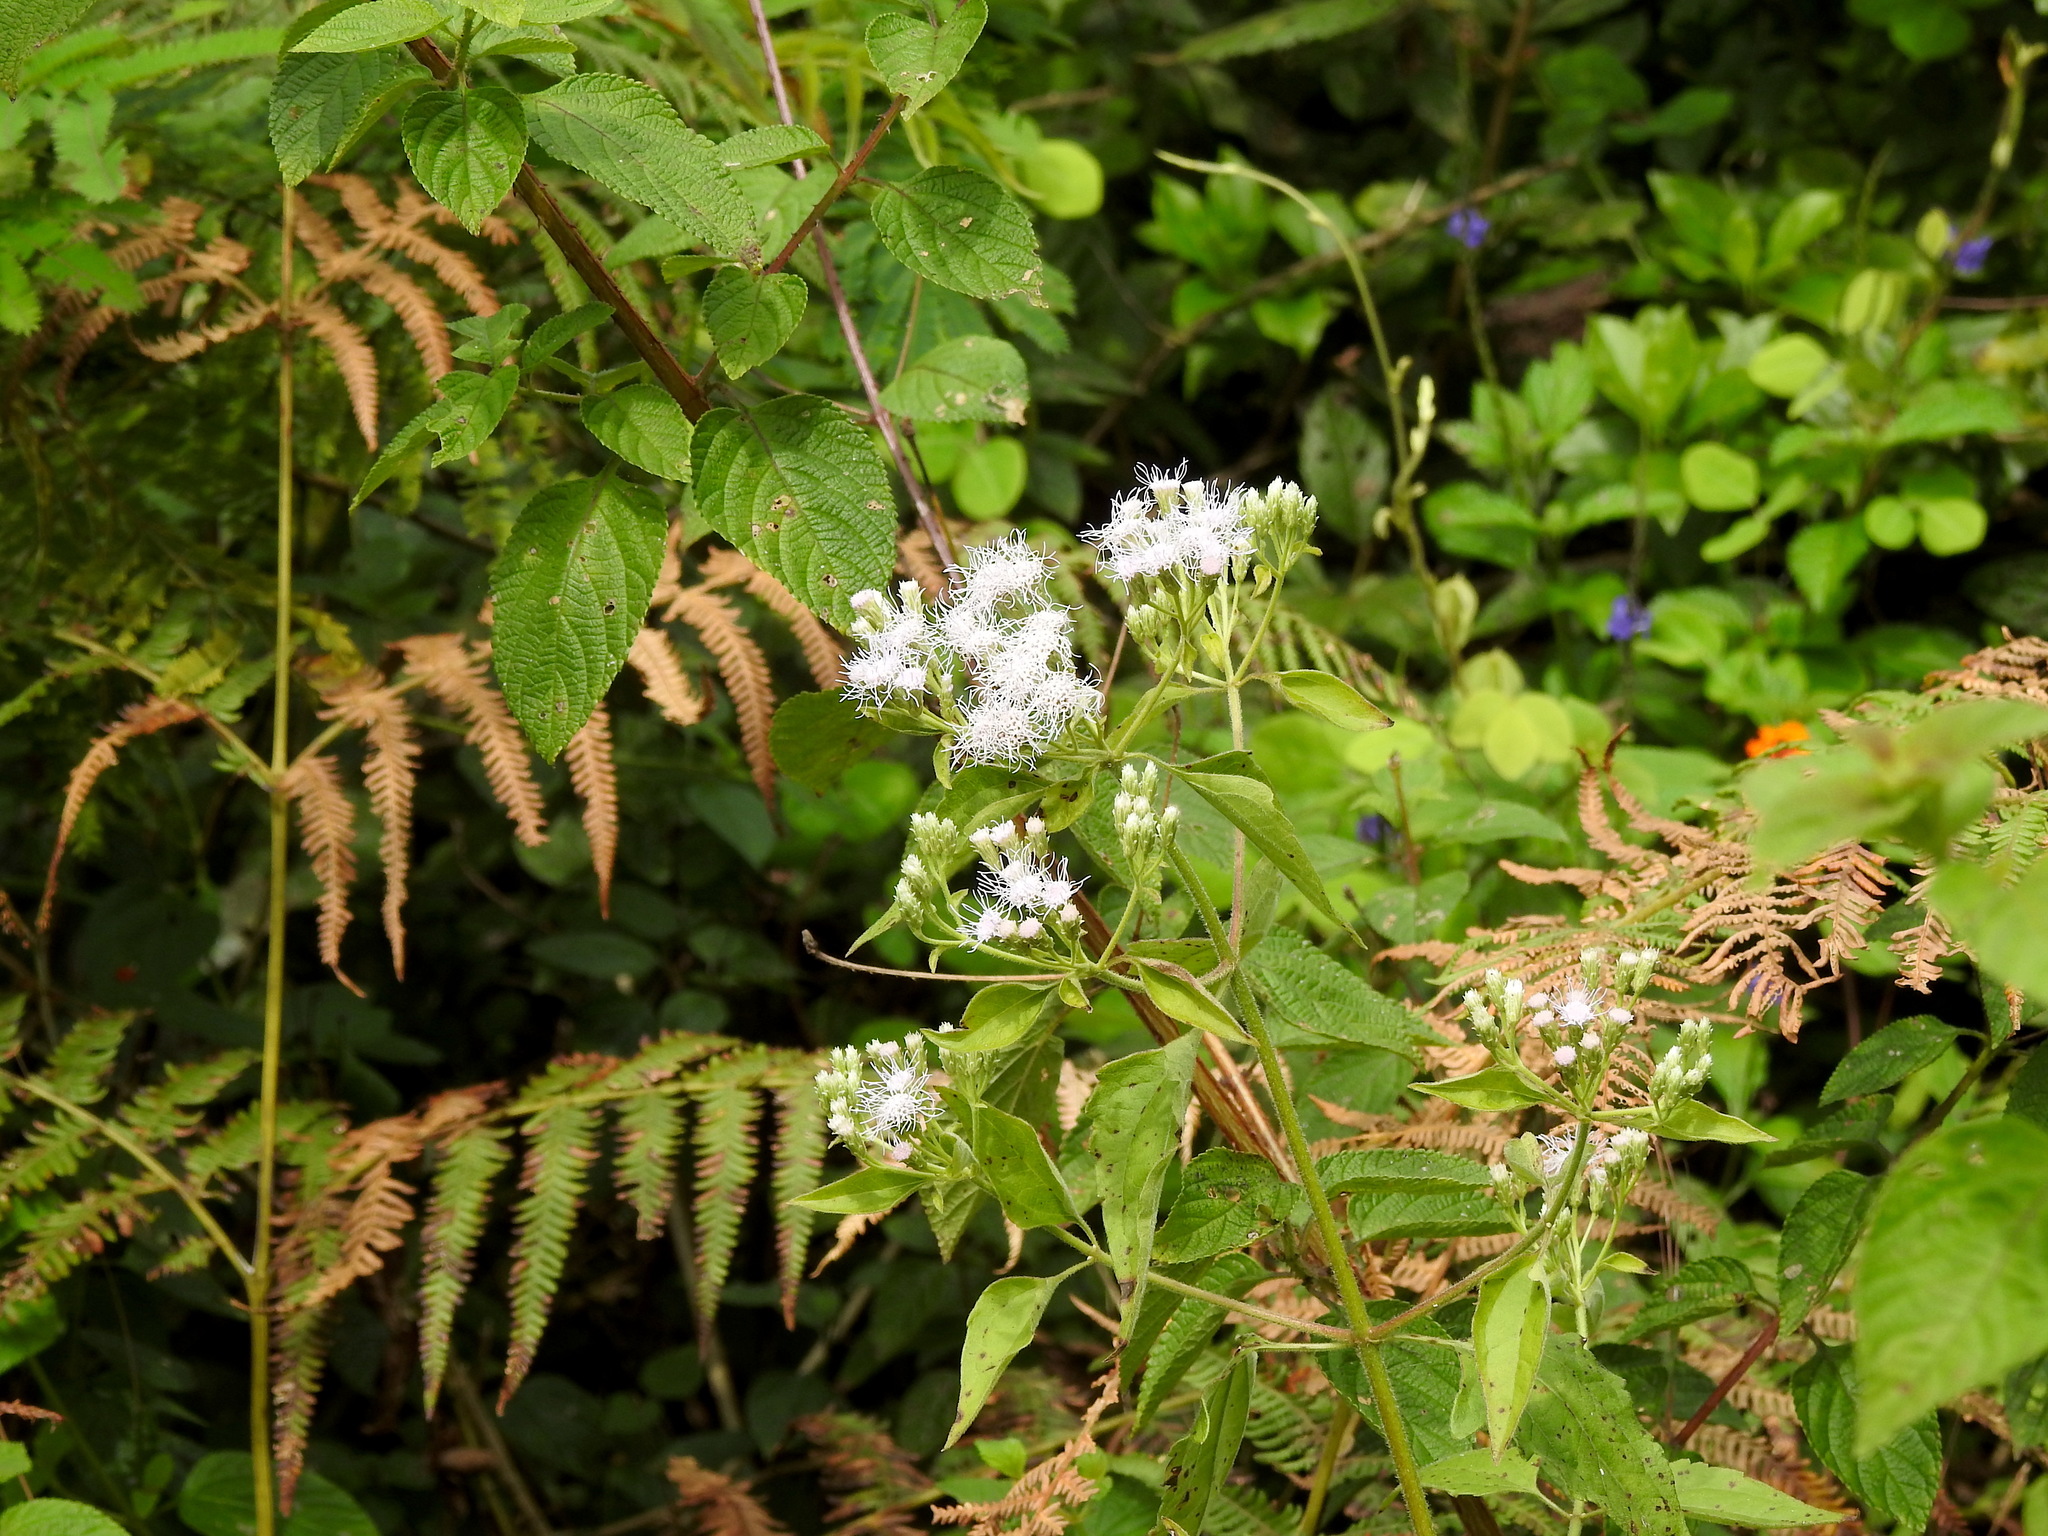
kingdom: Plantae
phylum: Tracheophyta
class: Magnoliopsida
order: Asterales
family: Asteraceae
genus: Chromolaena
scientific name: Chromolaena odorata
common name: Siamweed
